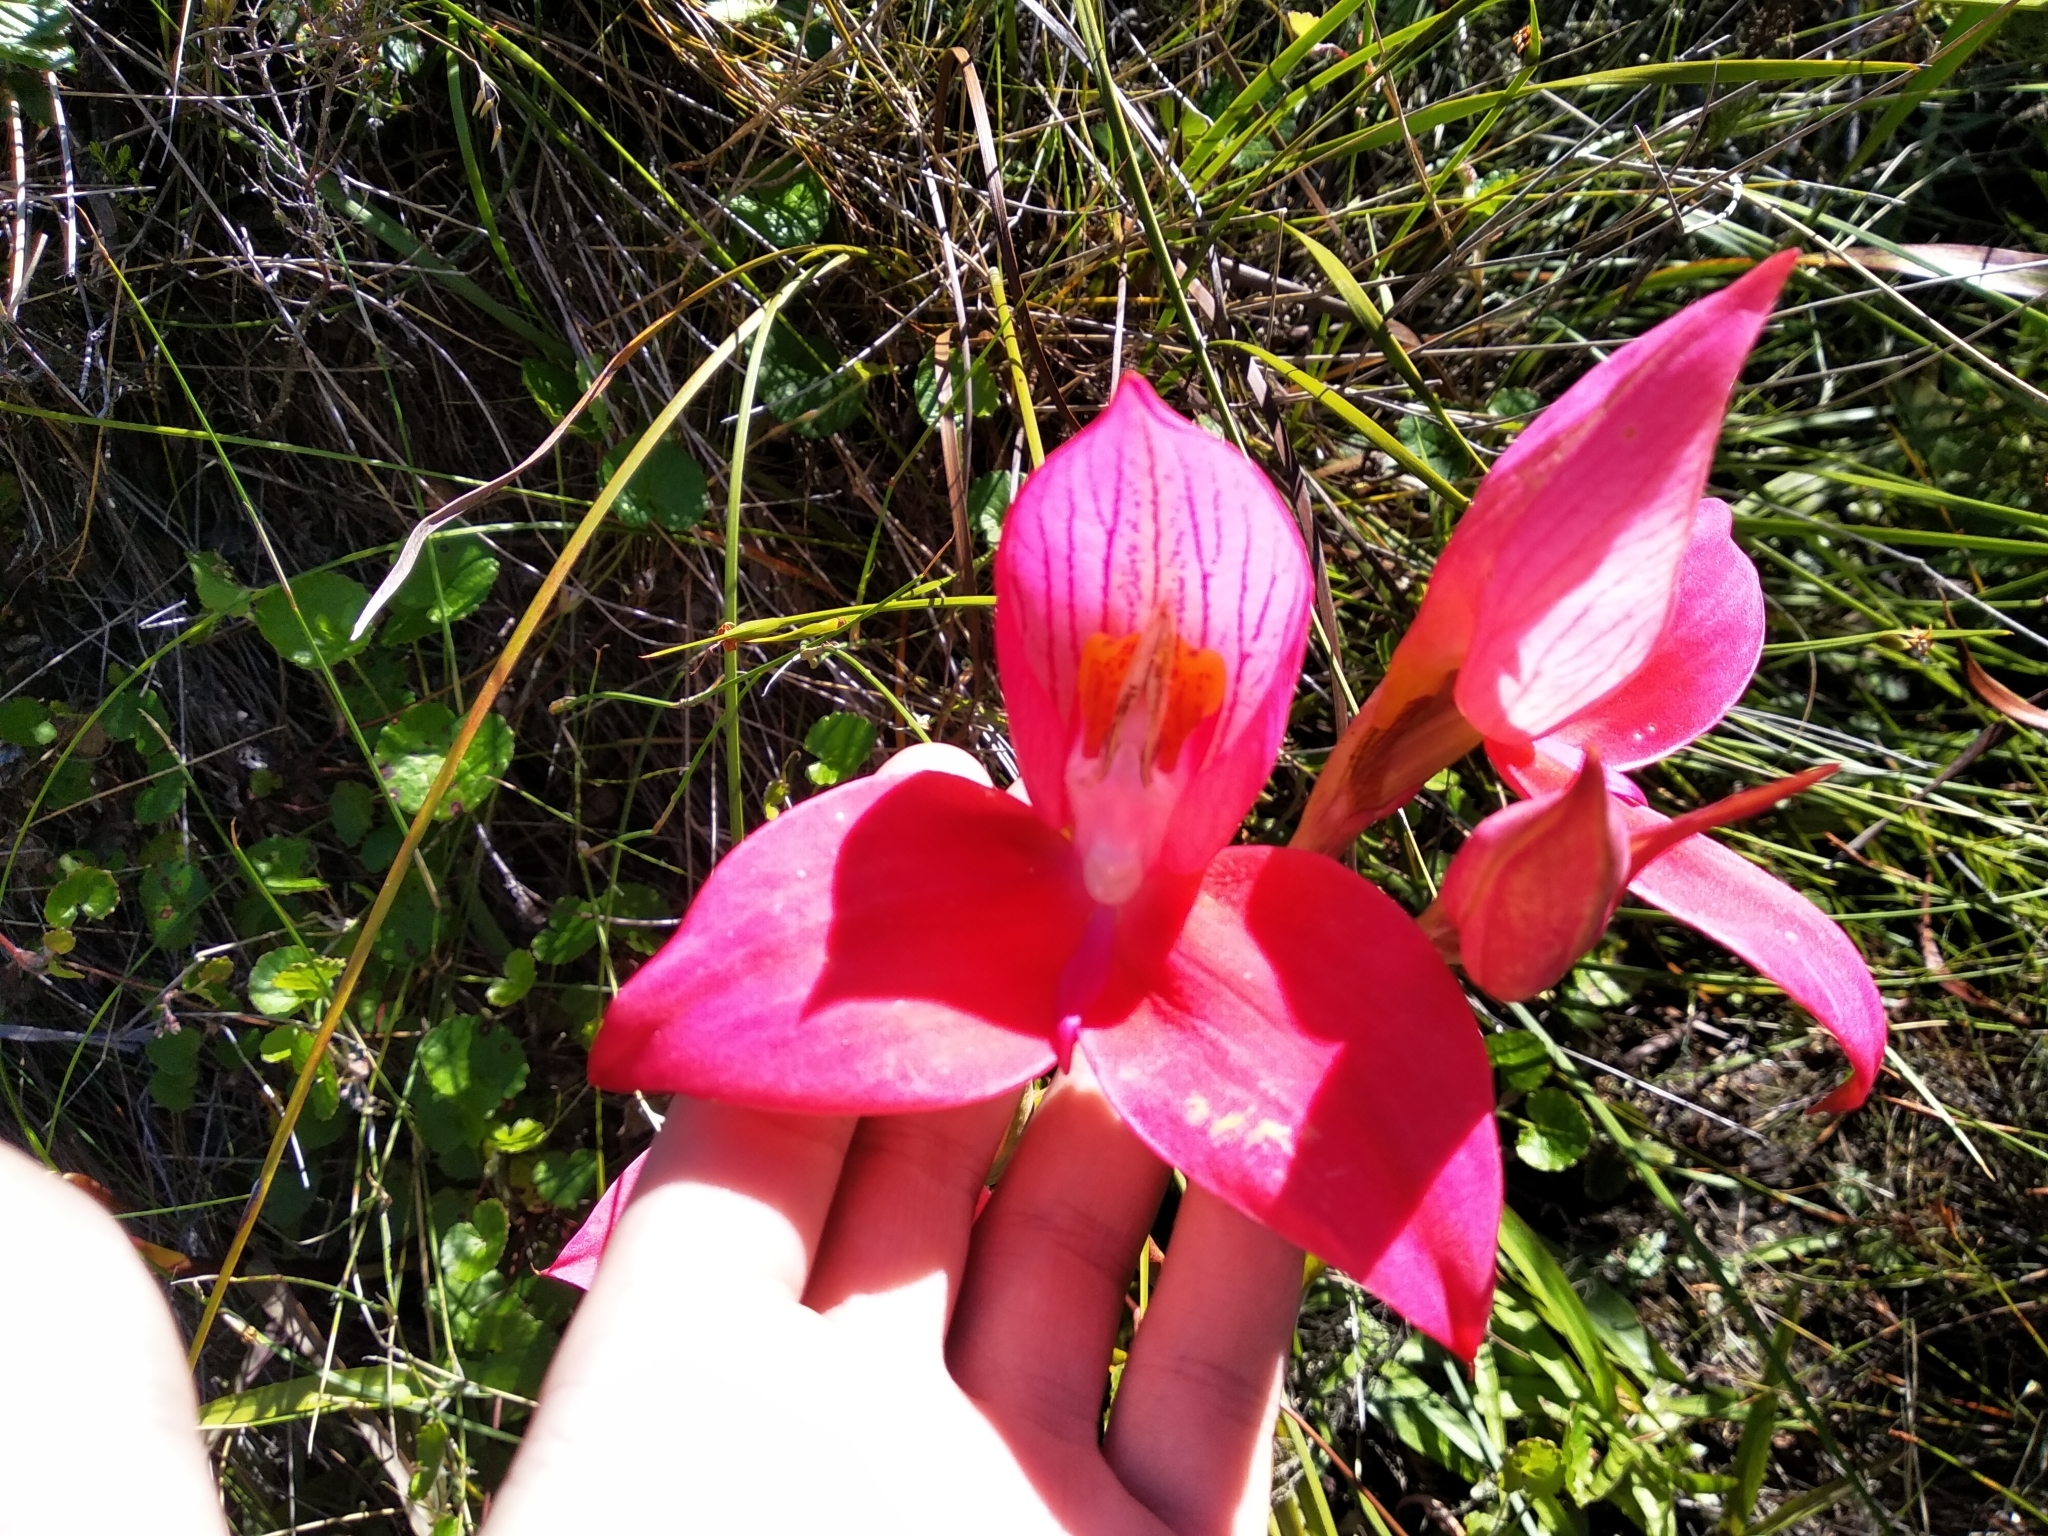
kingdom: Plantae
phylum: Tracheophyta
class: Liliopsida
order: Asparagales
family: Orchidaceae
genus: Disa
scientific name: Disa uniflora
